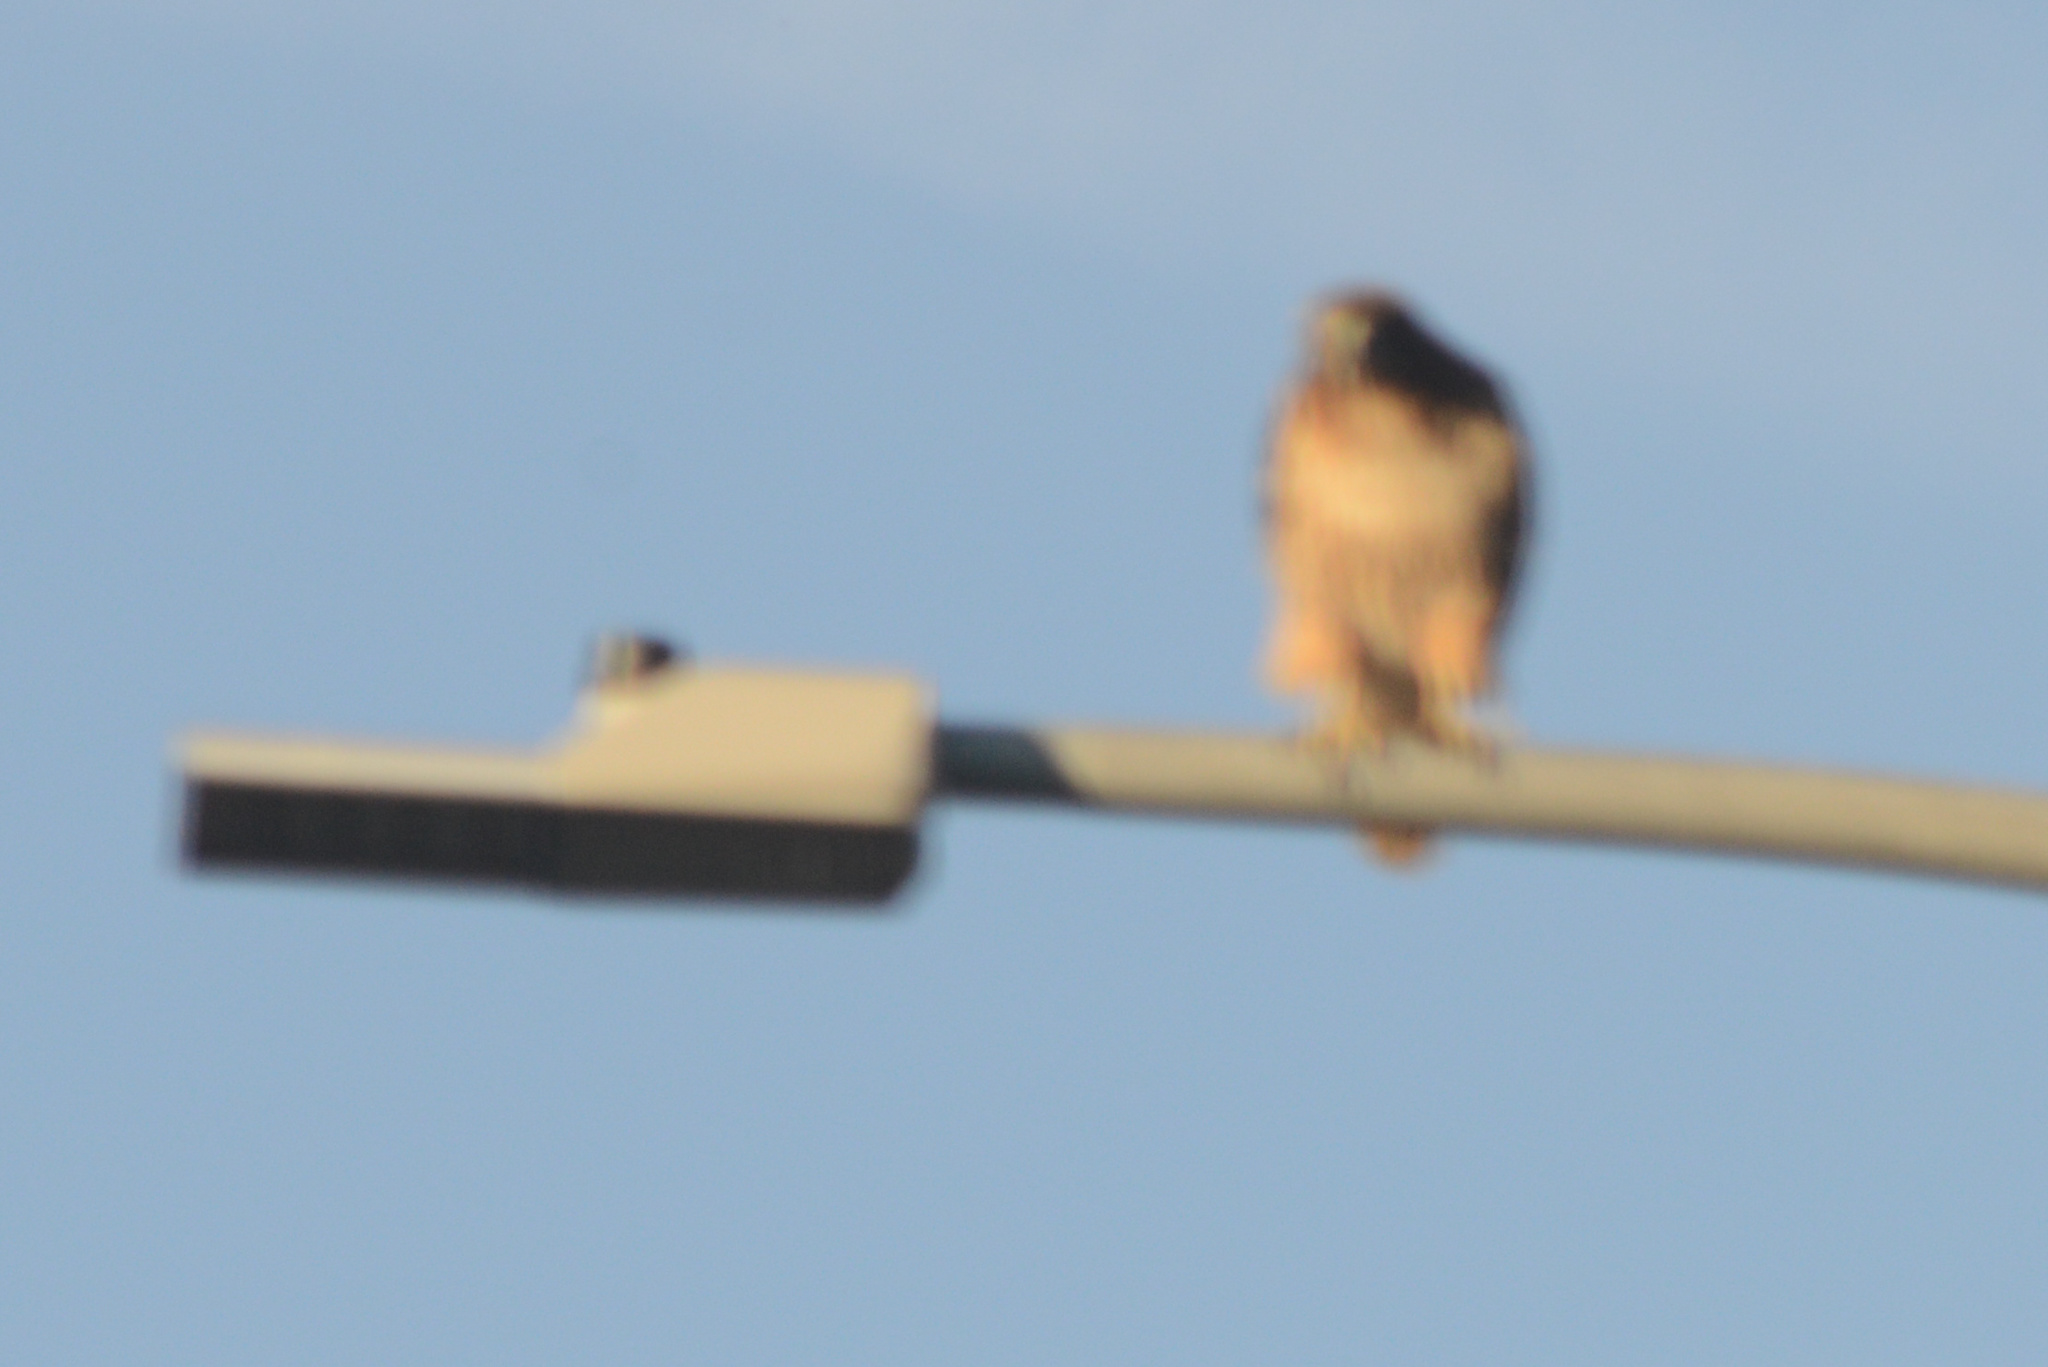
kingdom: Animalia
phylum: Chordata
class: Aves
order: Accipitriformes
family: Accipitridae
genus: Buteo
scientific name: Buteo jamaicensis
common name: Red-tailed hawk
